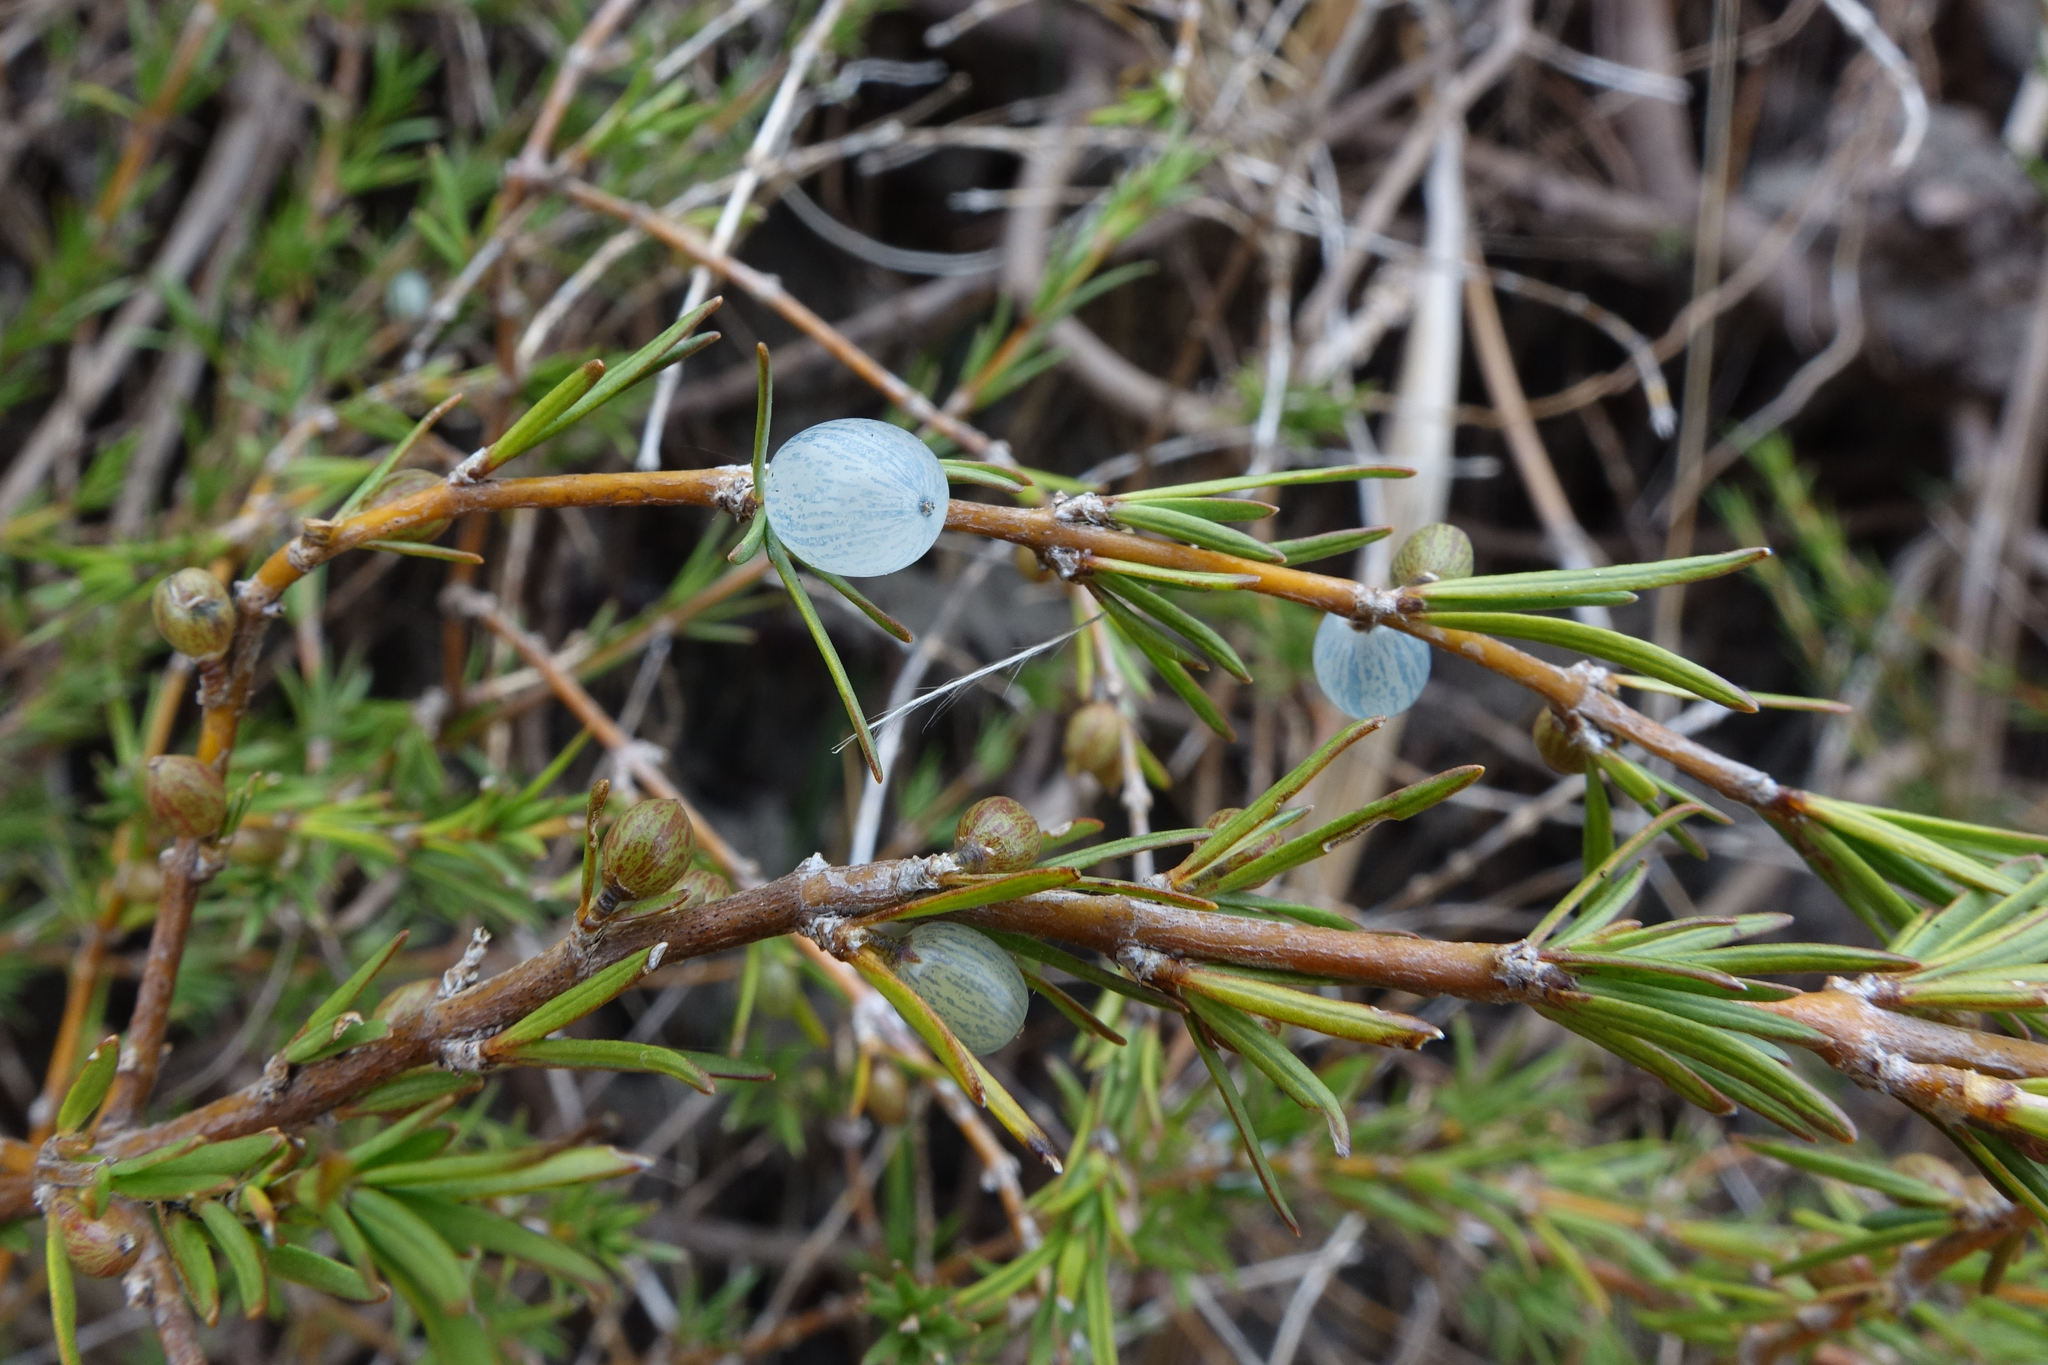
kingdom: Plantae
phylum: Tracheophyta
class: Magnoliopsida
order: Gentianales
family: Rubiaceae
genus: Coprosma
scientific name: Coprosma acerosa
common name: Sand coprosma
